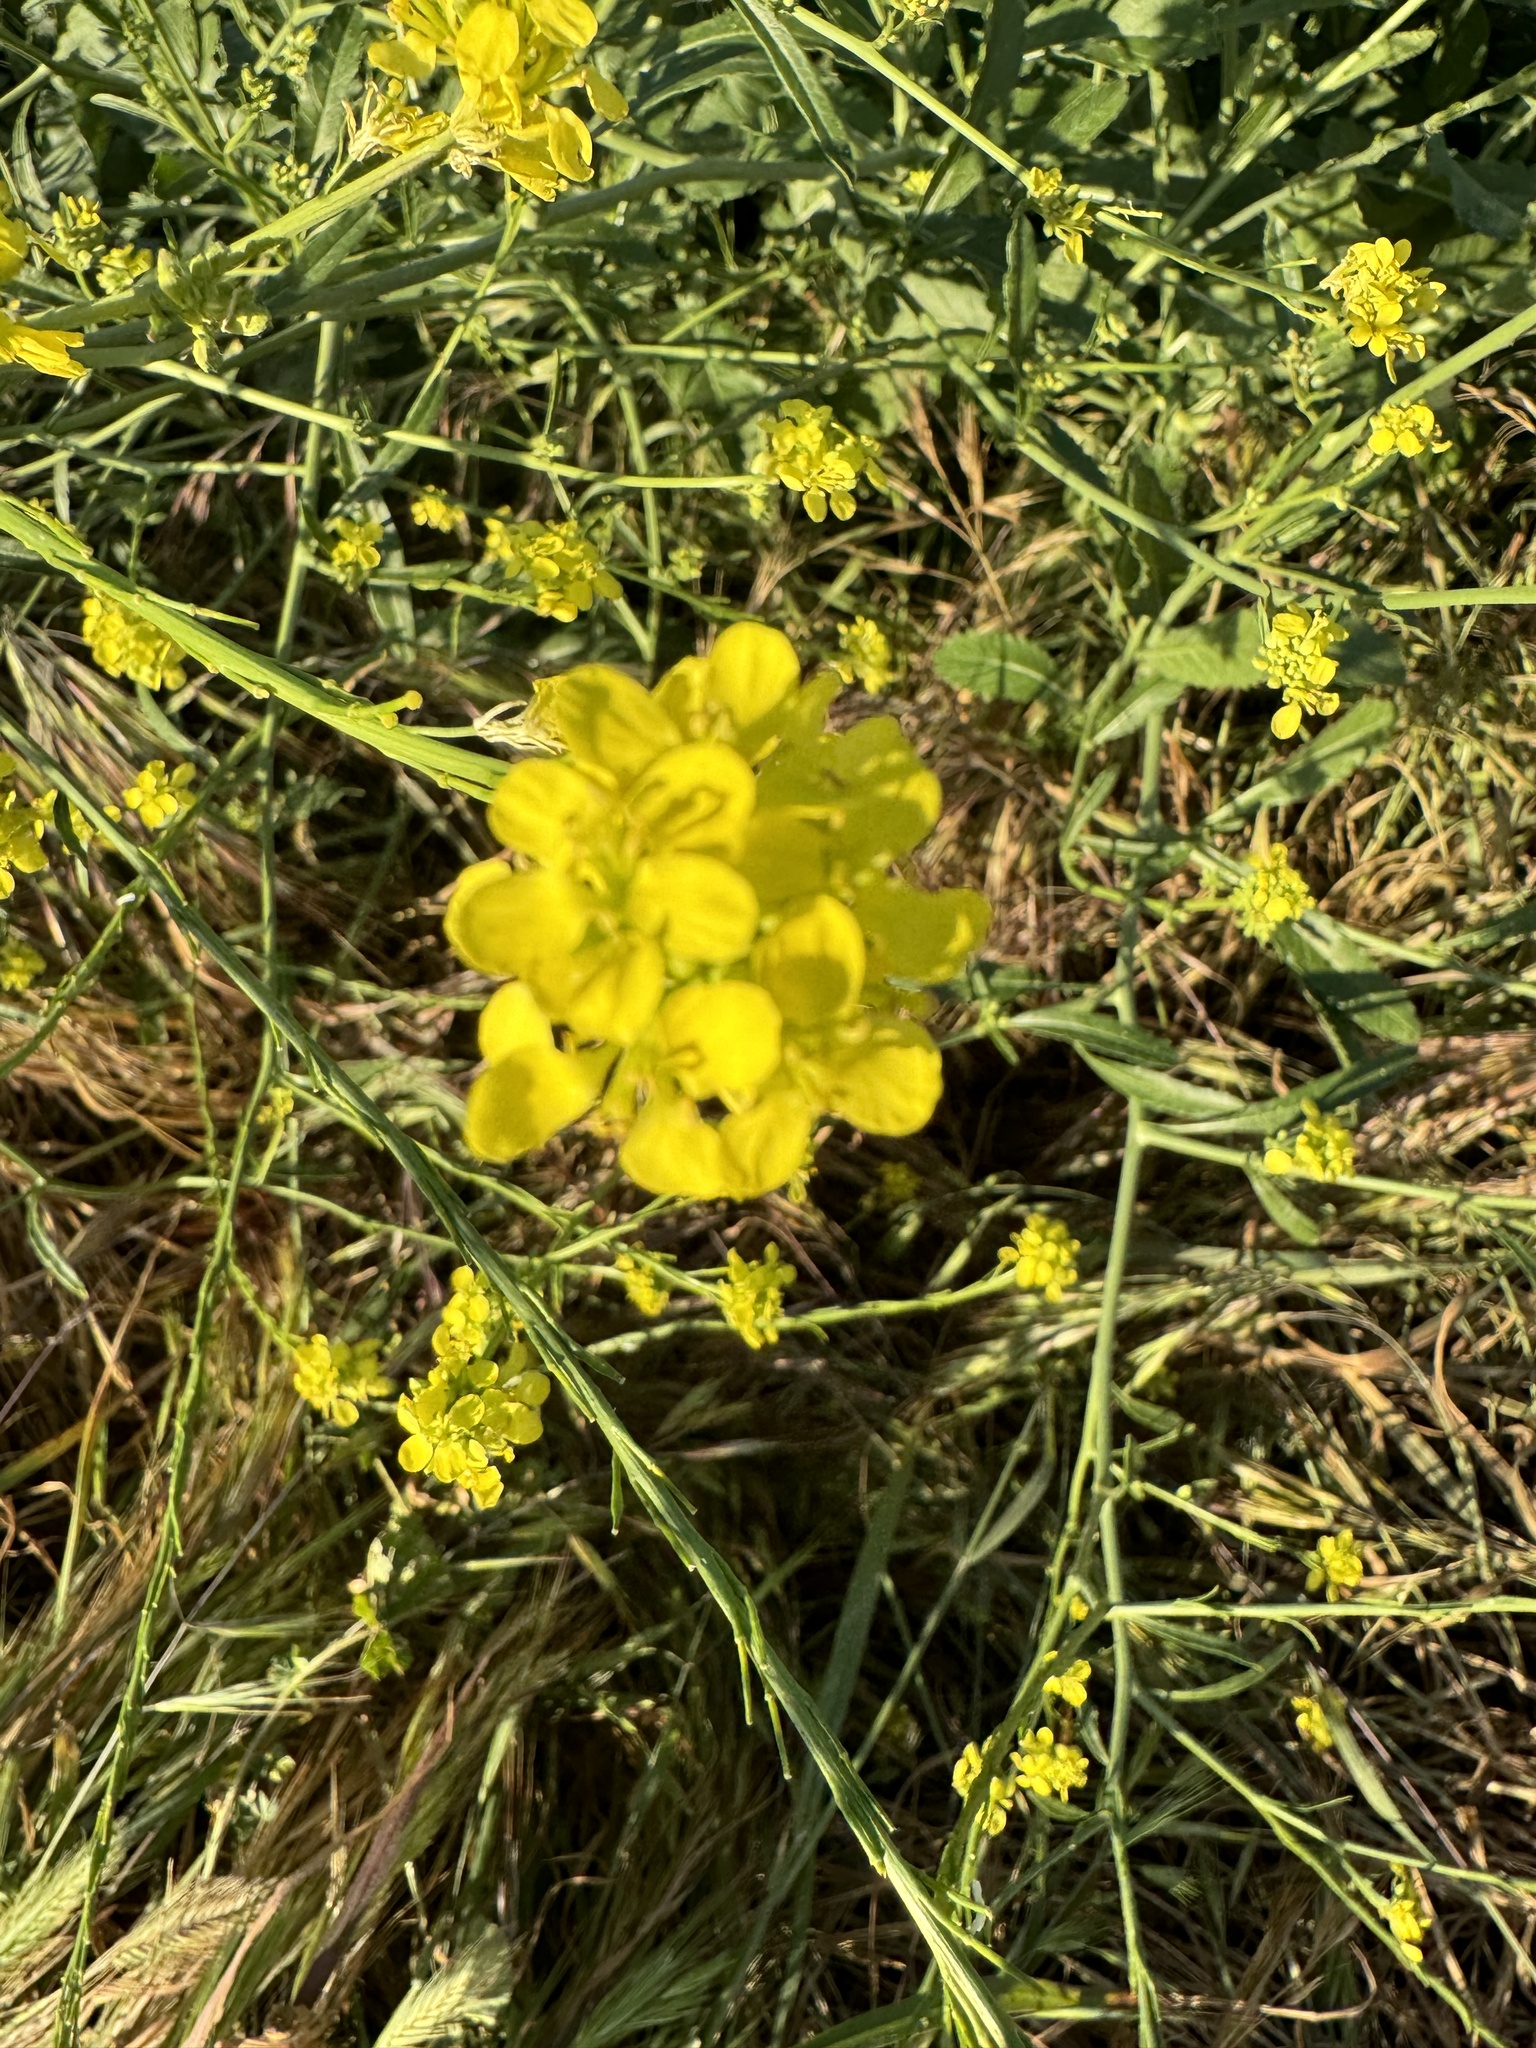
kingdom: Plantae
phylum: Tracheophyta
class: Magnoliopsida
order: Brassicales
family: Brassicaceae
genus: Brassica
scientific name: Brassica rapa
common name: Field mustard
